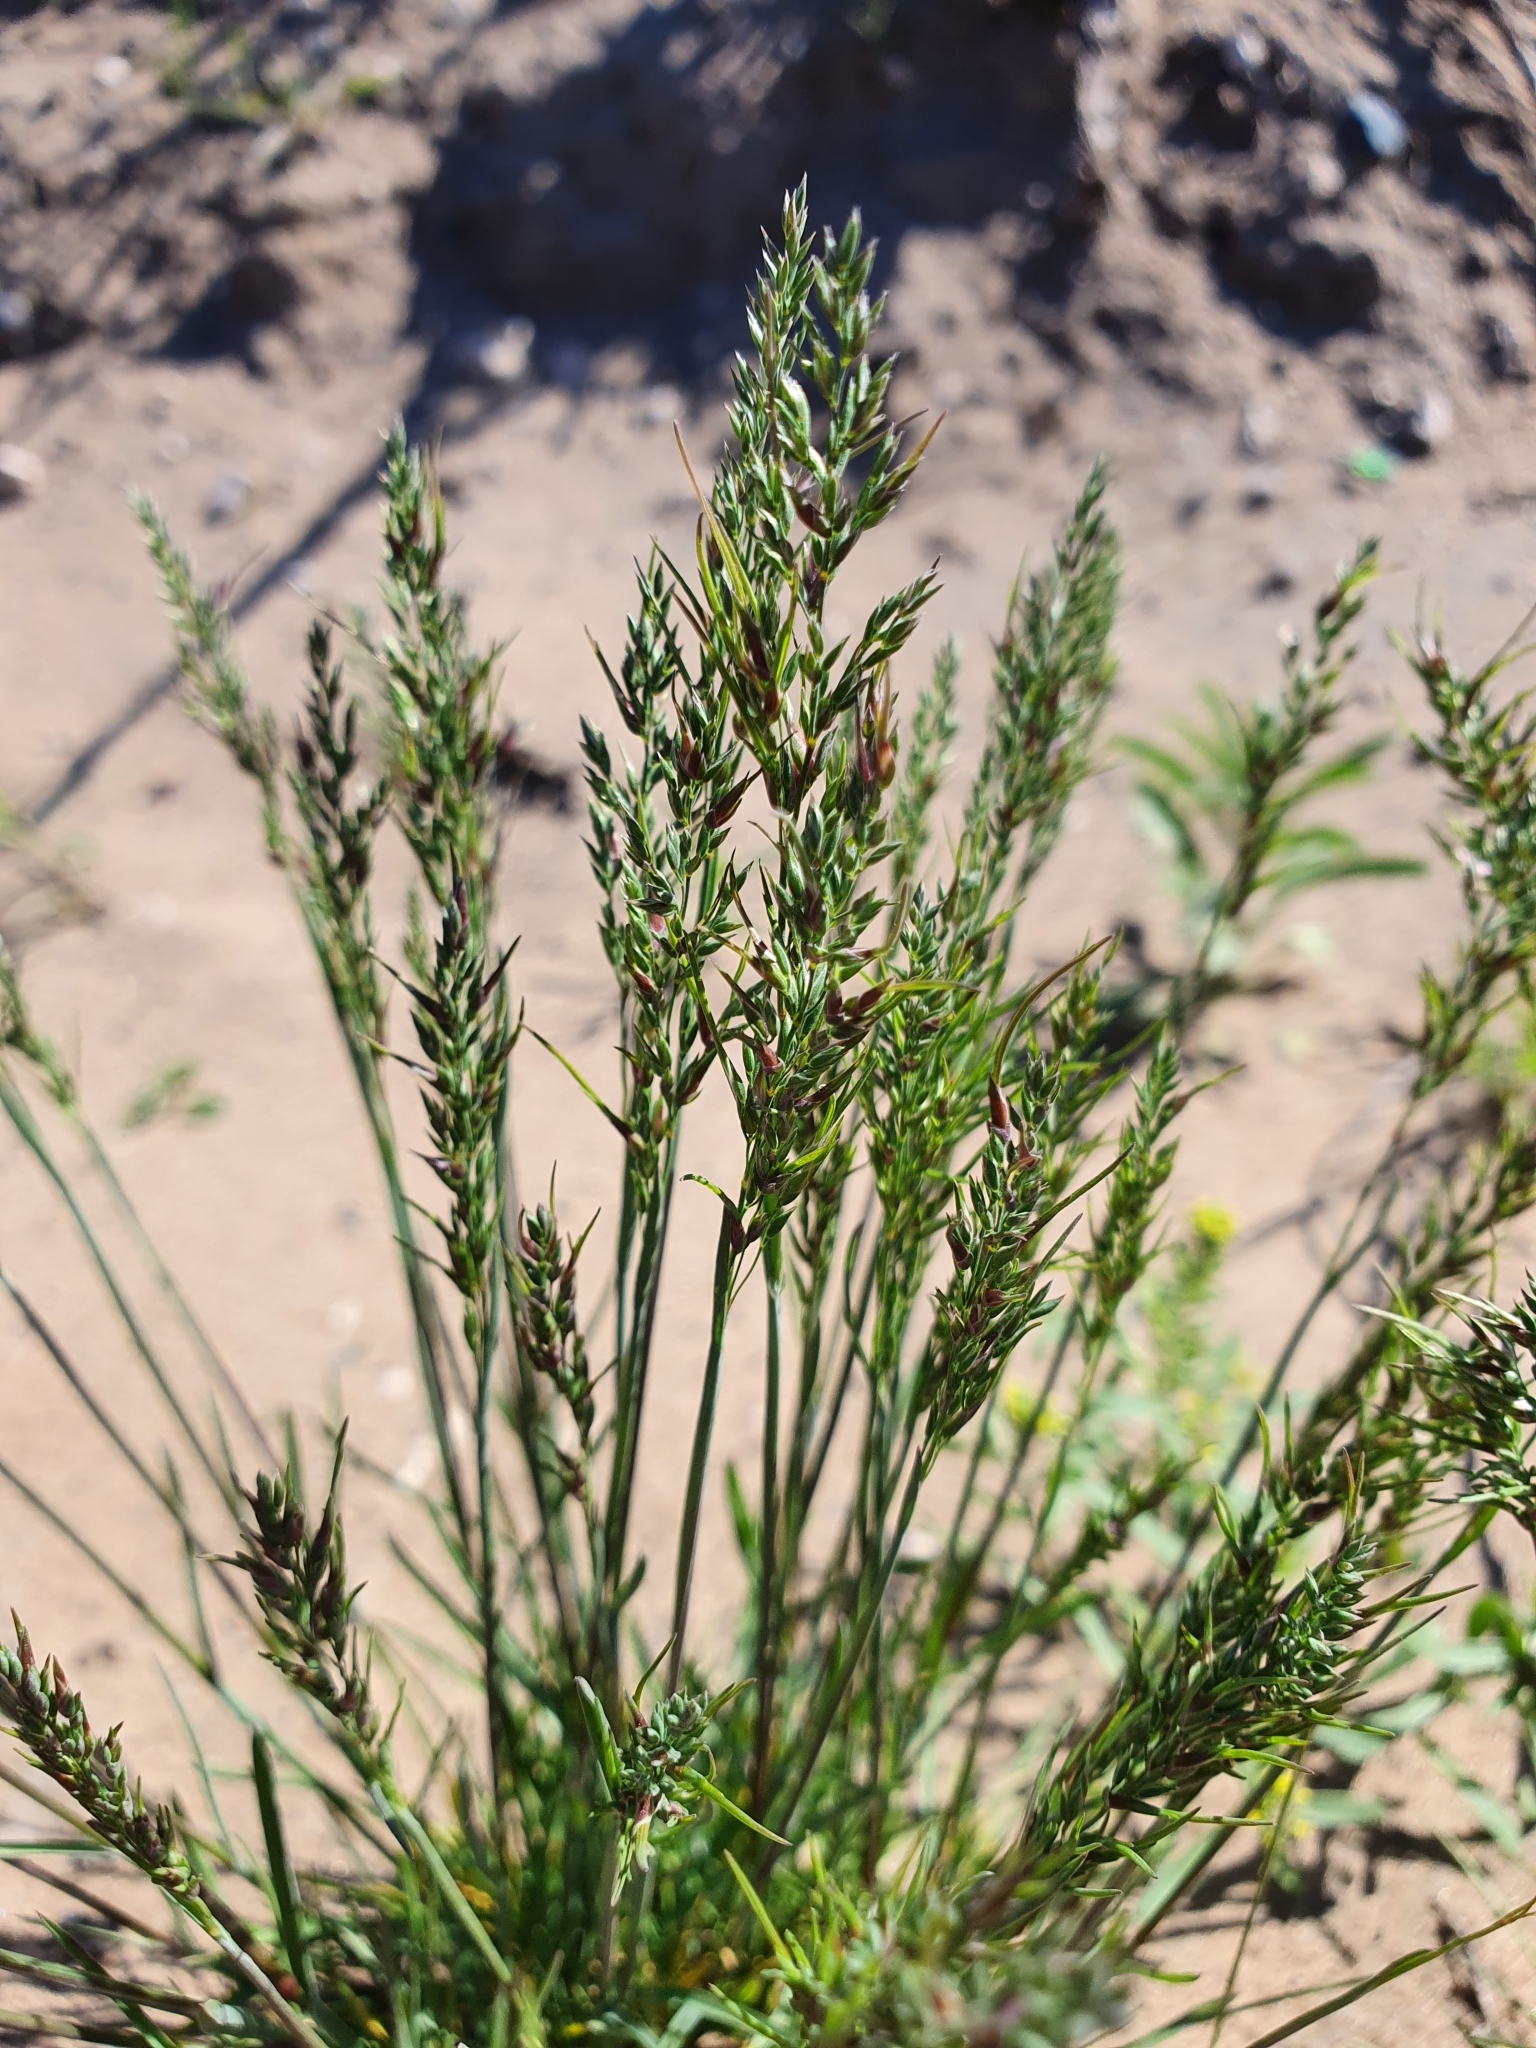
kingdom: Plantae
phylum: Tracheophyta
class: Liliopsida
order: Poales
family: Poaceae
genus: Poa
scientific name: Poa bulbosa
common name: Bulbous bluegrass
